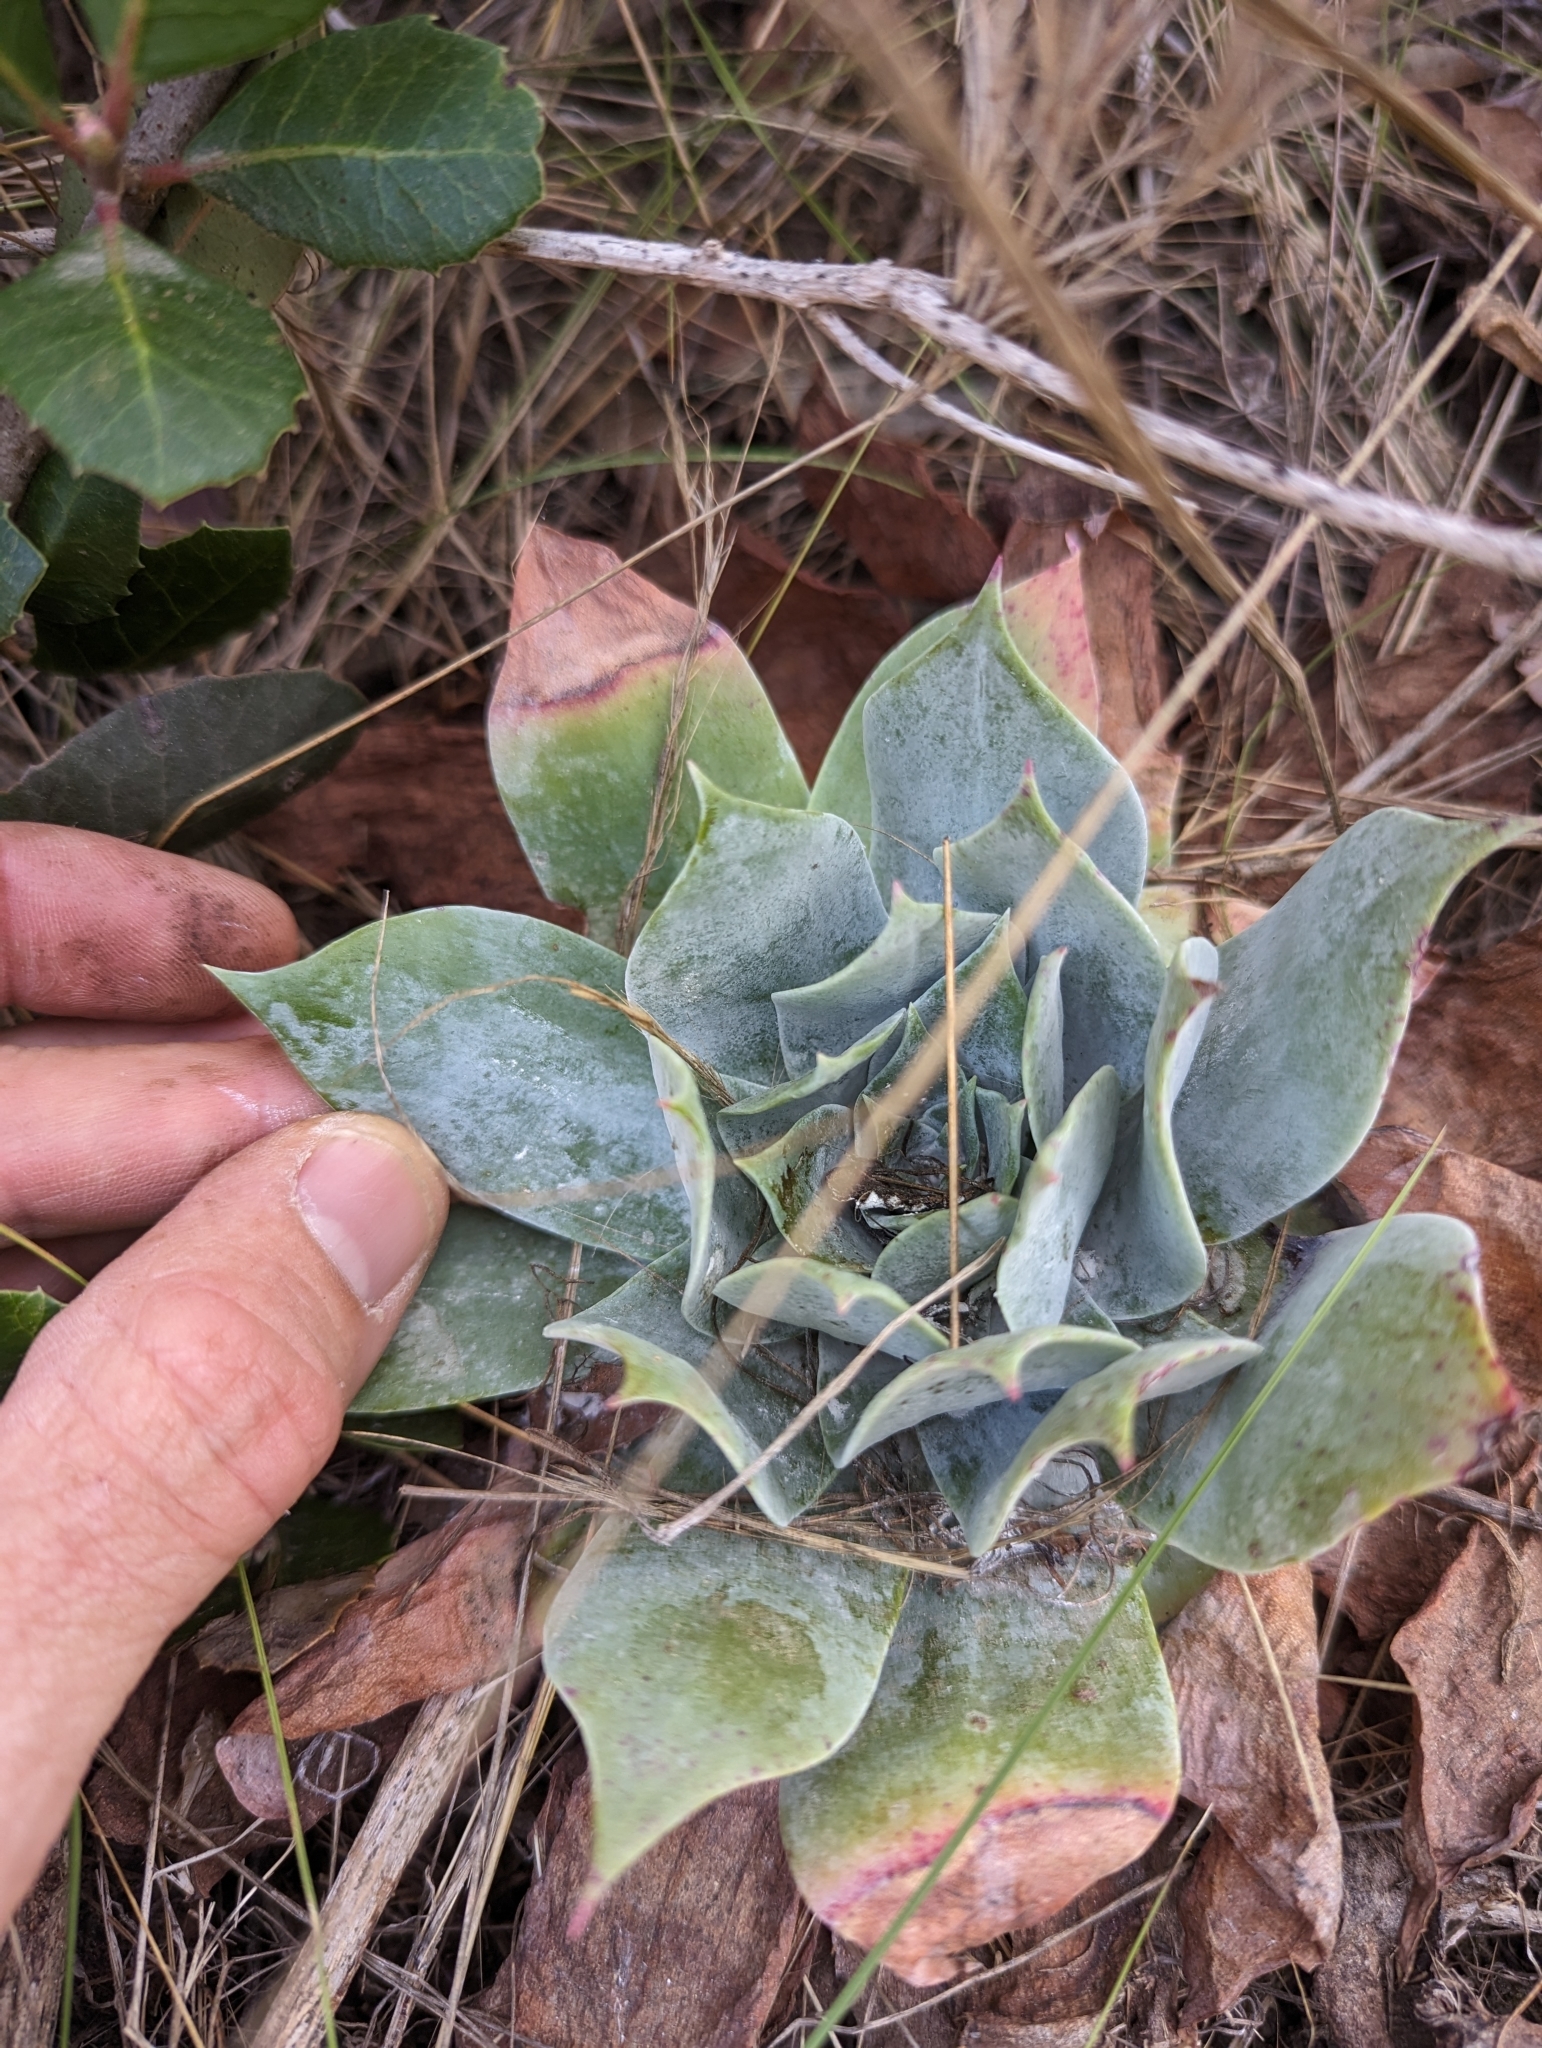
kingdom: Plantae
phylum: Tracheophyta
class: Magnoliopsida
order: Saxifragales
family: Crassulaceae
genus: Dudleya
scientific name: Dudleya pulverulenta
